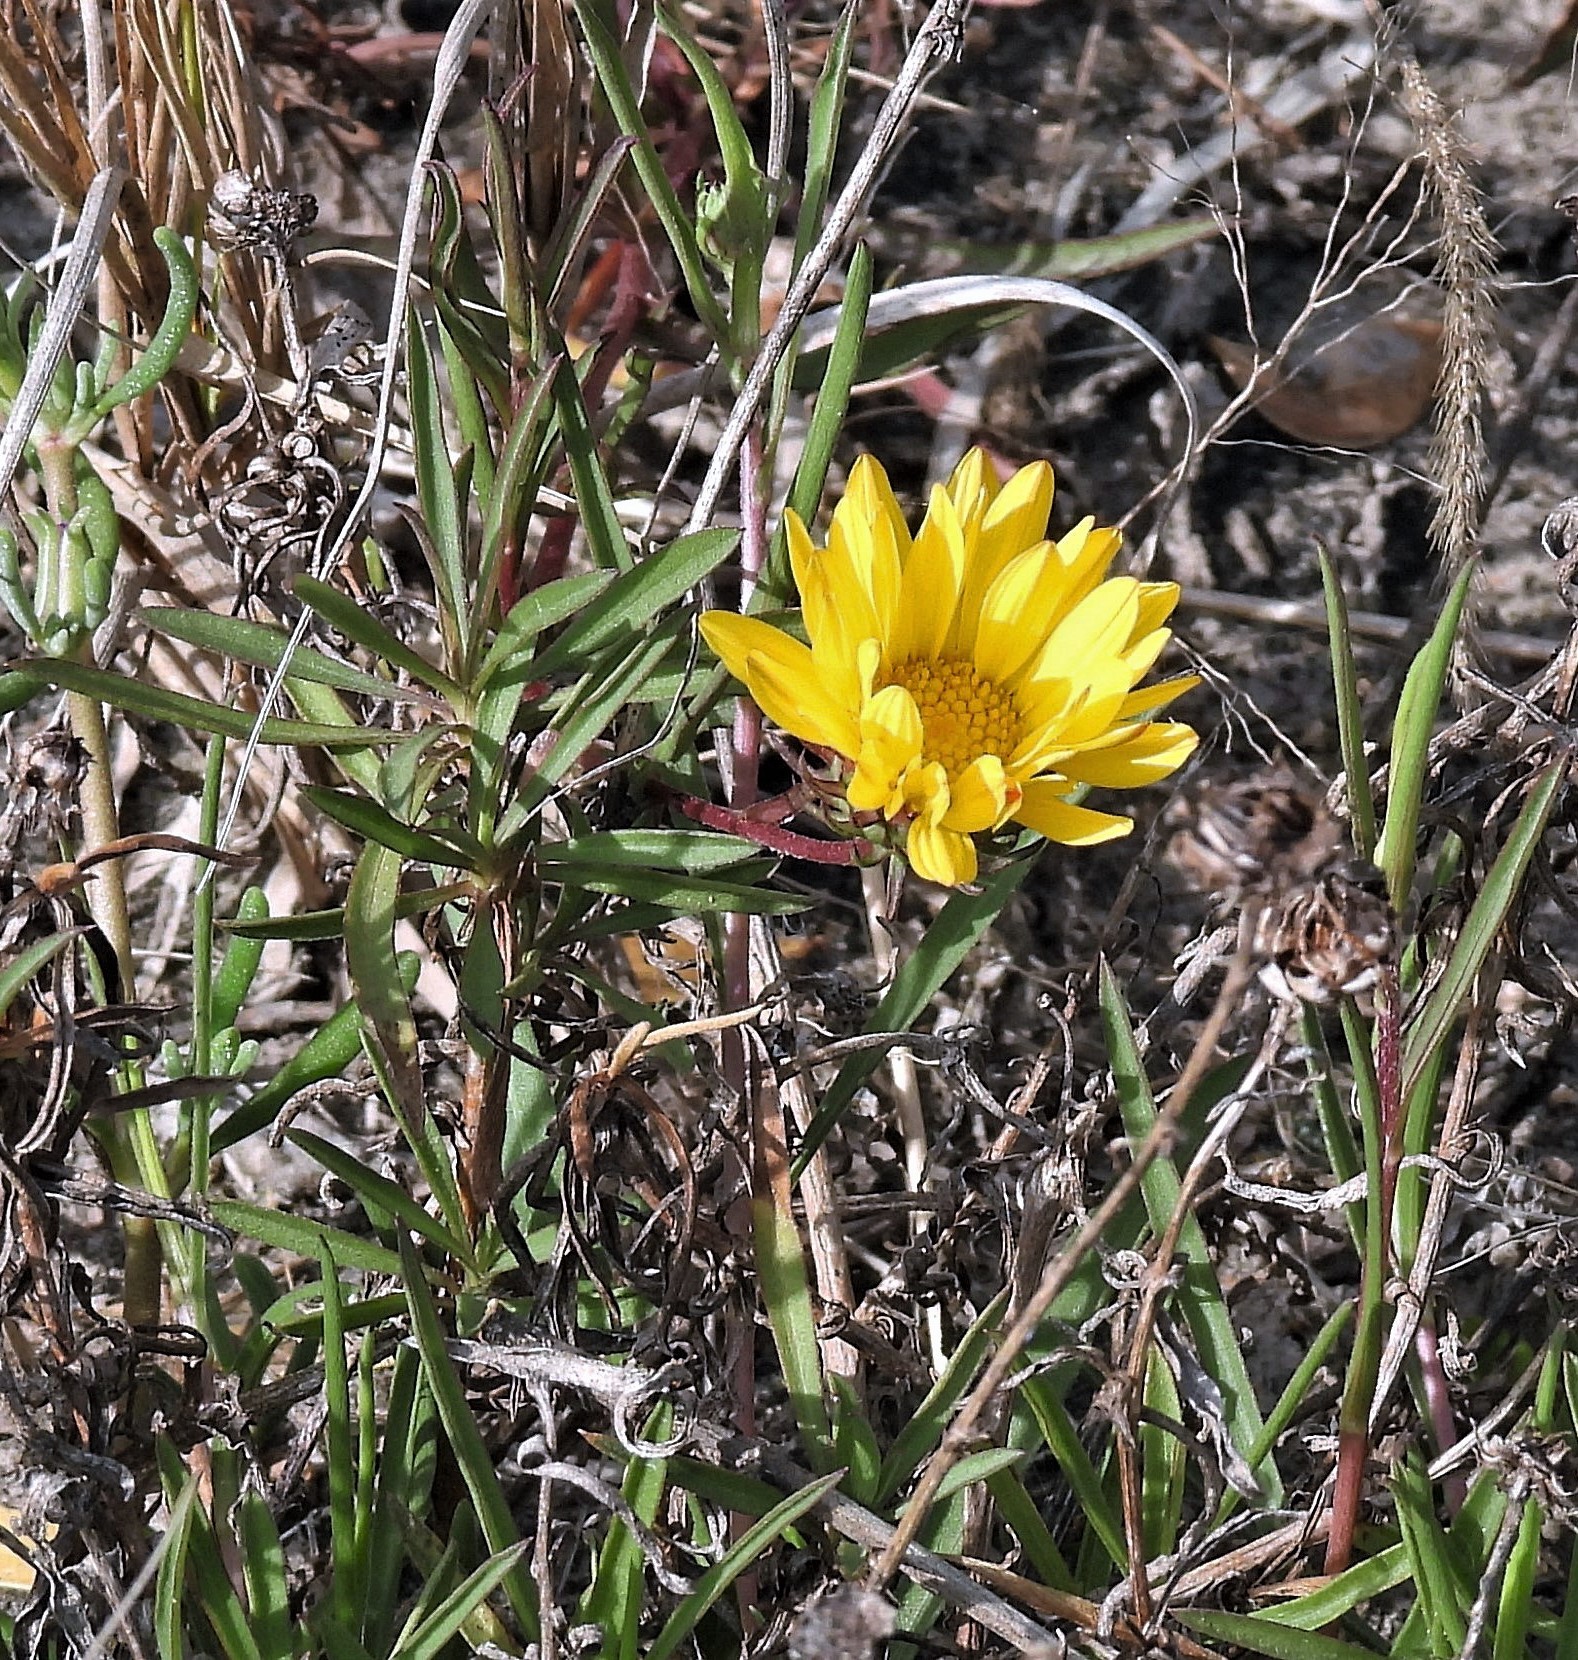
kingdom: Plantae
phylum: Tracheophyta
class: Magnoliopsida
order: Asterales
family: Asteraceae
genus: Grindelia
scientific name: Grindelia scorzonerifolia
